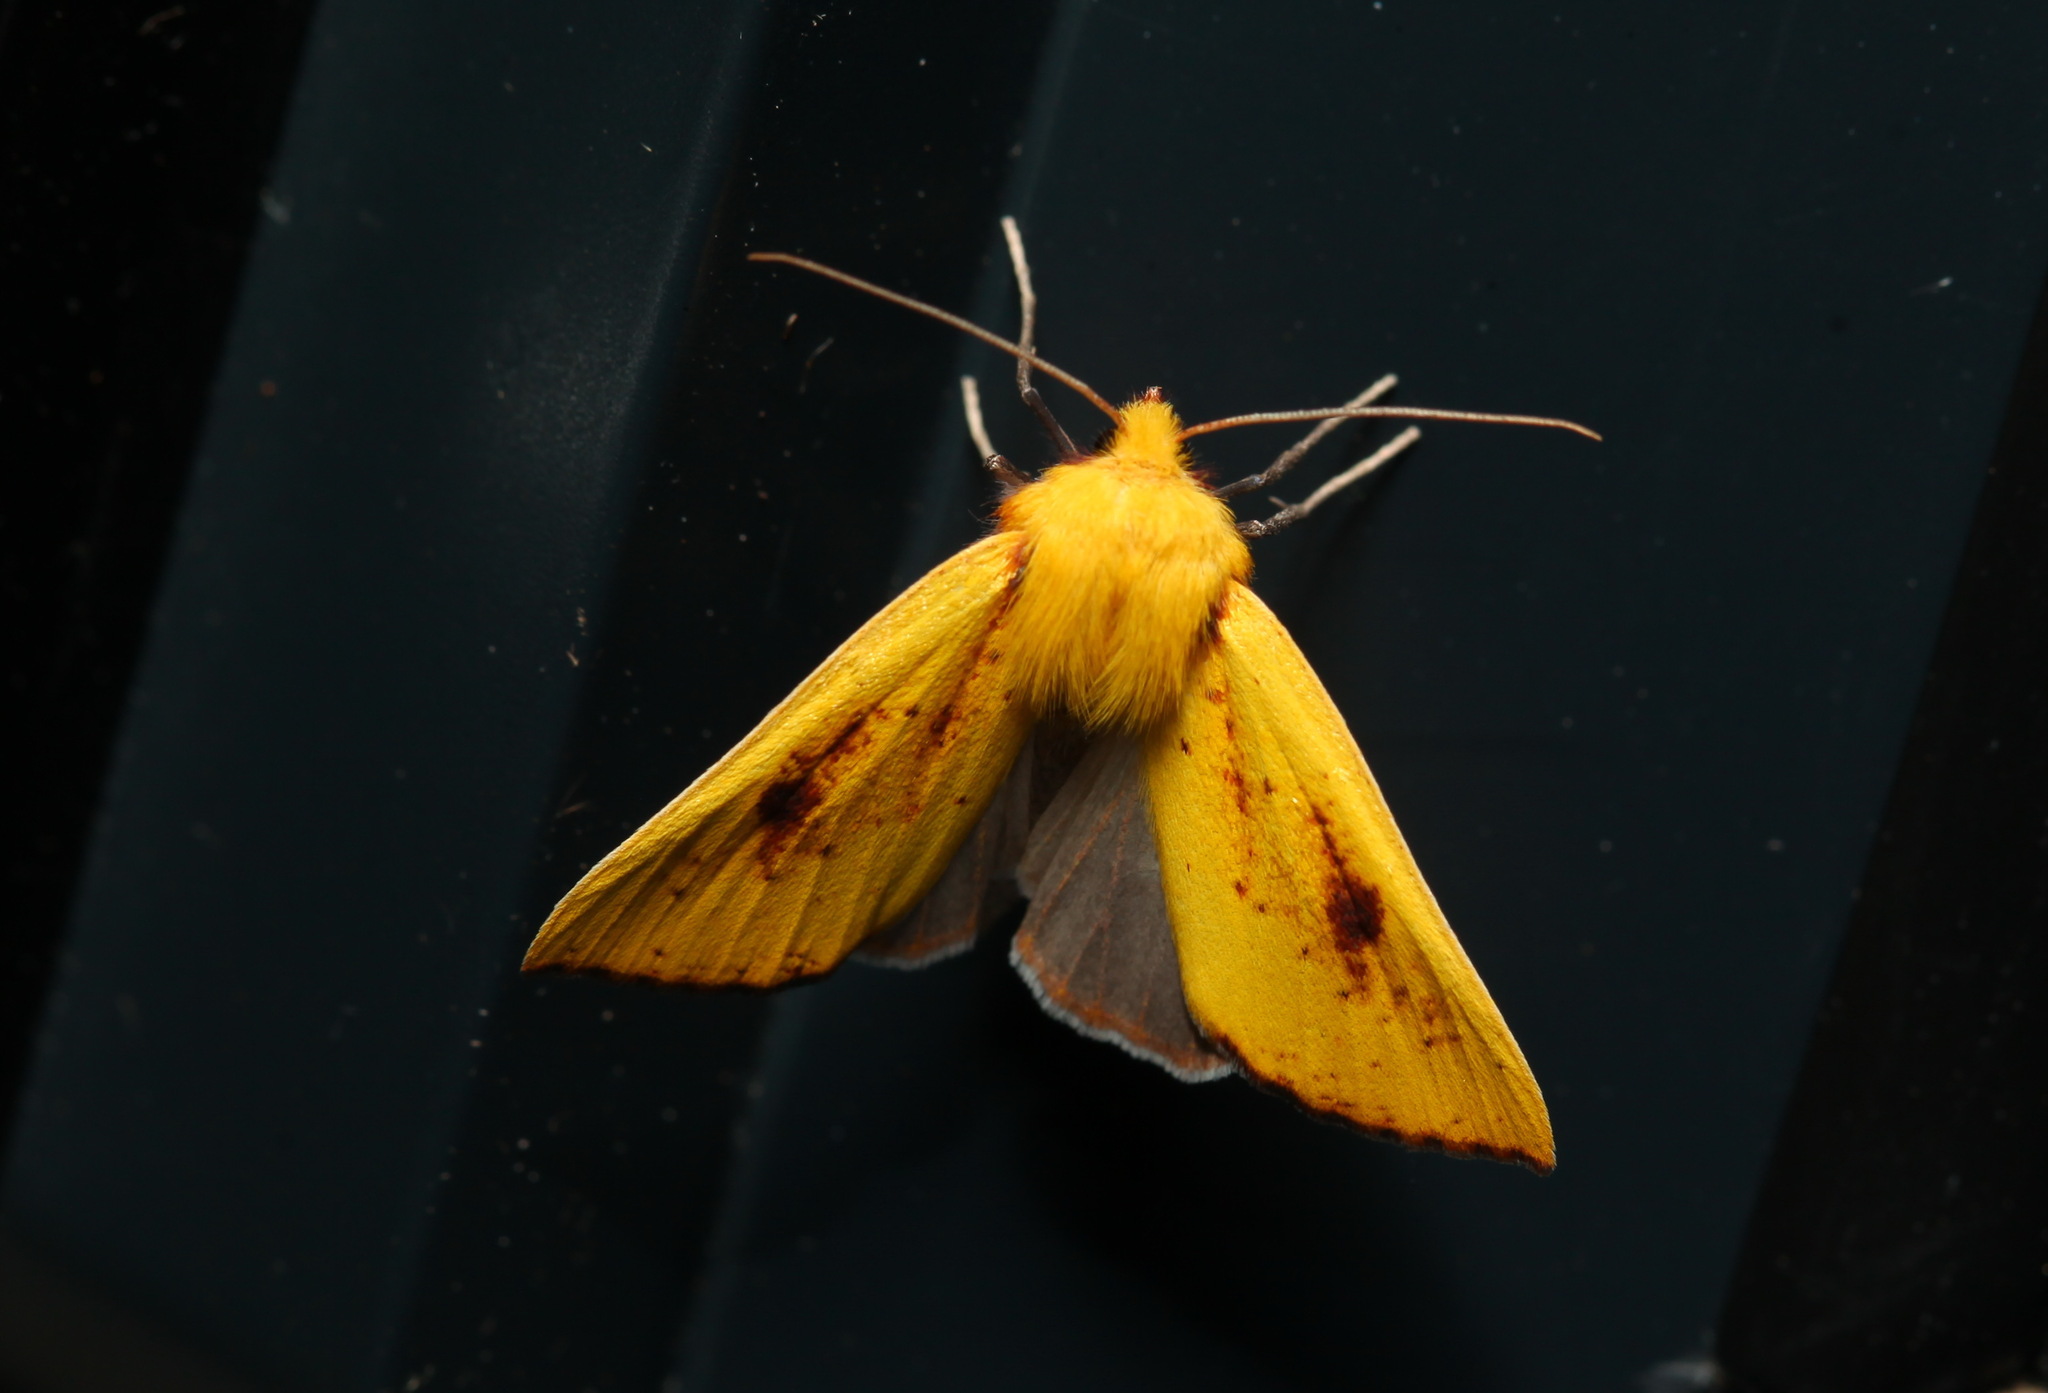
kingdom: Animalia
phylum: Arthropoda
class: Insecta
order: Lepidoptera
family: Geometridae
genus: Acrasia
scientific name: Acrasia crinita
